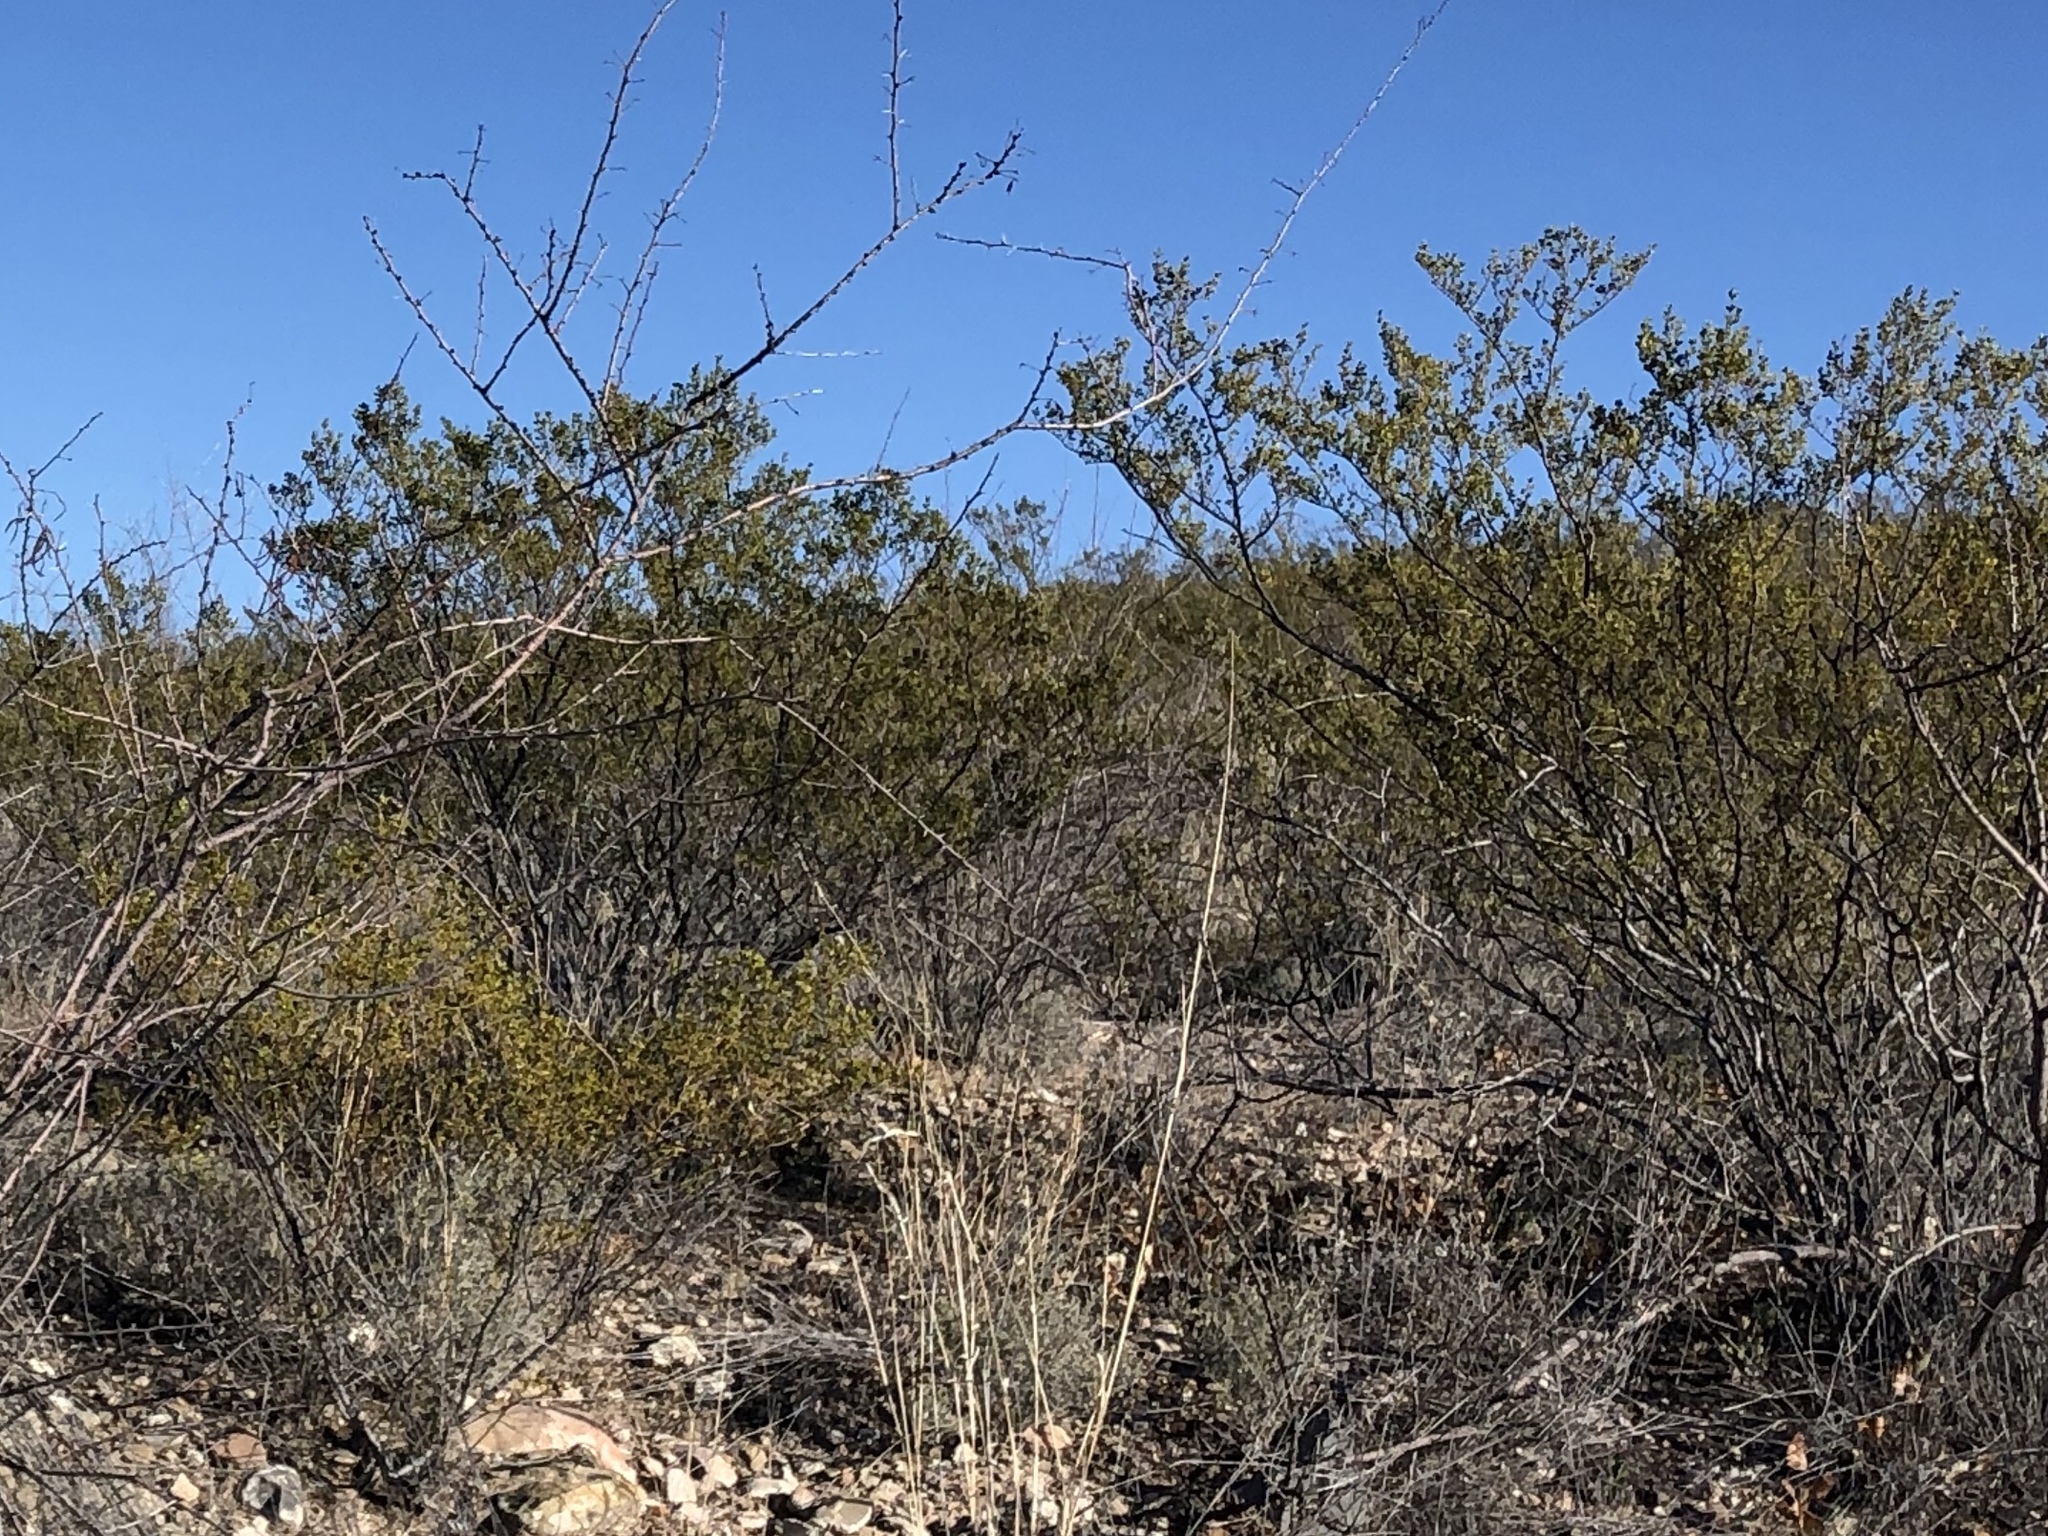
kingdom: Plantae
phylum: Tracheophyta
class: Magnoliopsida
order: Zygophyllales
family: Zygophyllaceae
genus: Larrea
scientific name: Larrea tridentata
